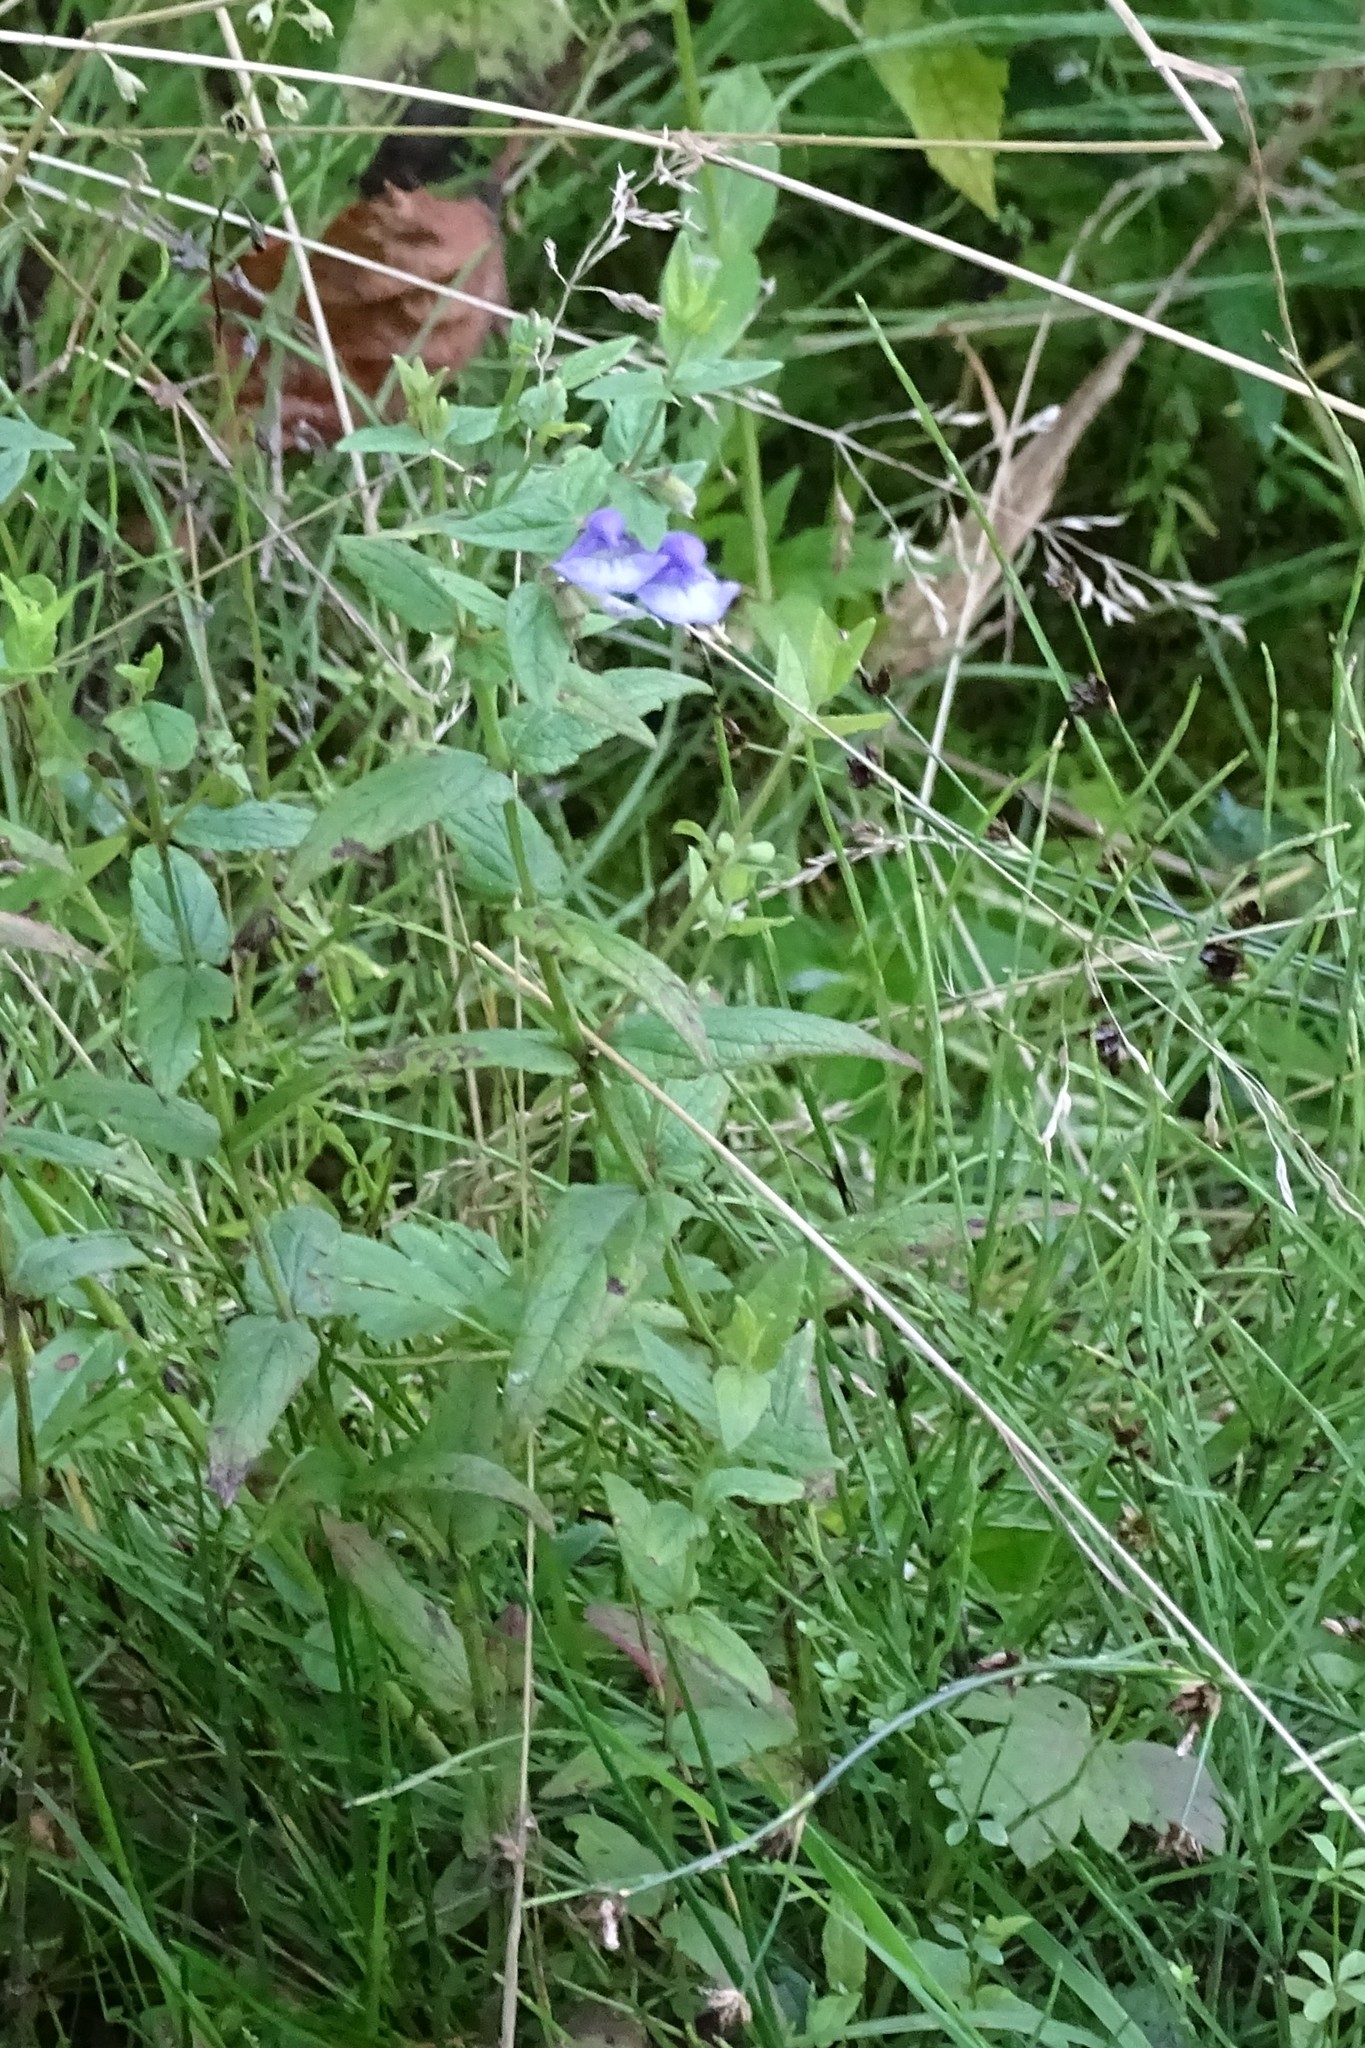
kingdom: Plantae
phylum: Tracheophyta
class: Magnoliopsida
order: Lamiales
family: Lamiaceae
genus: Scutellaria
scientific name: Scutellaria galericulata
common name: Skullcap
